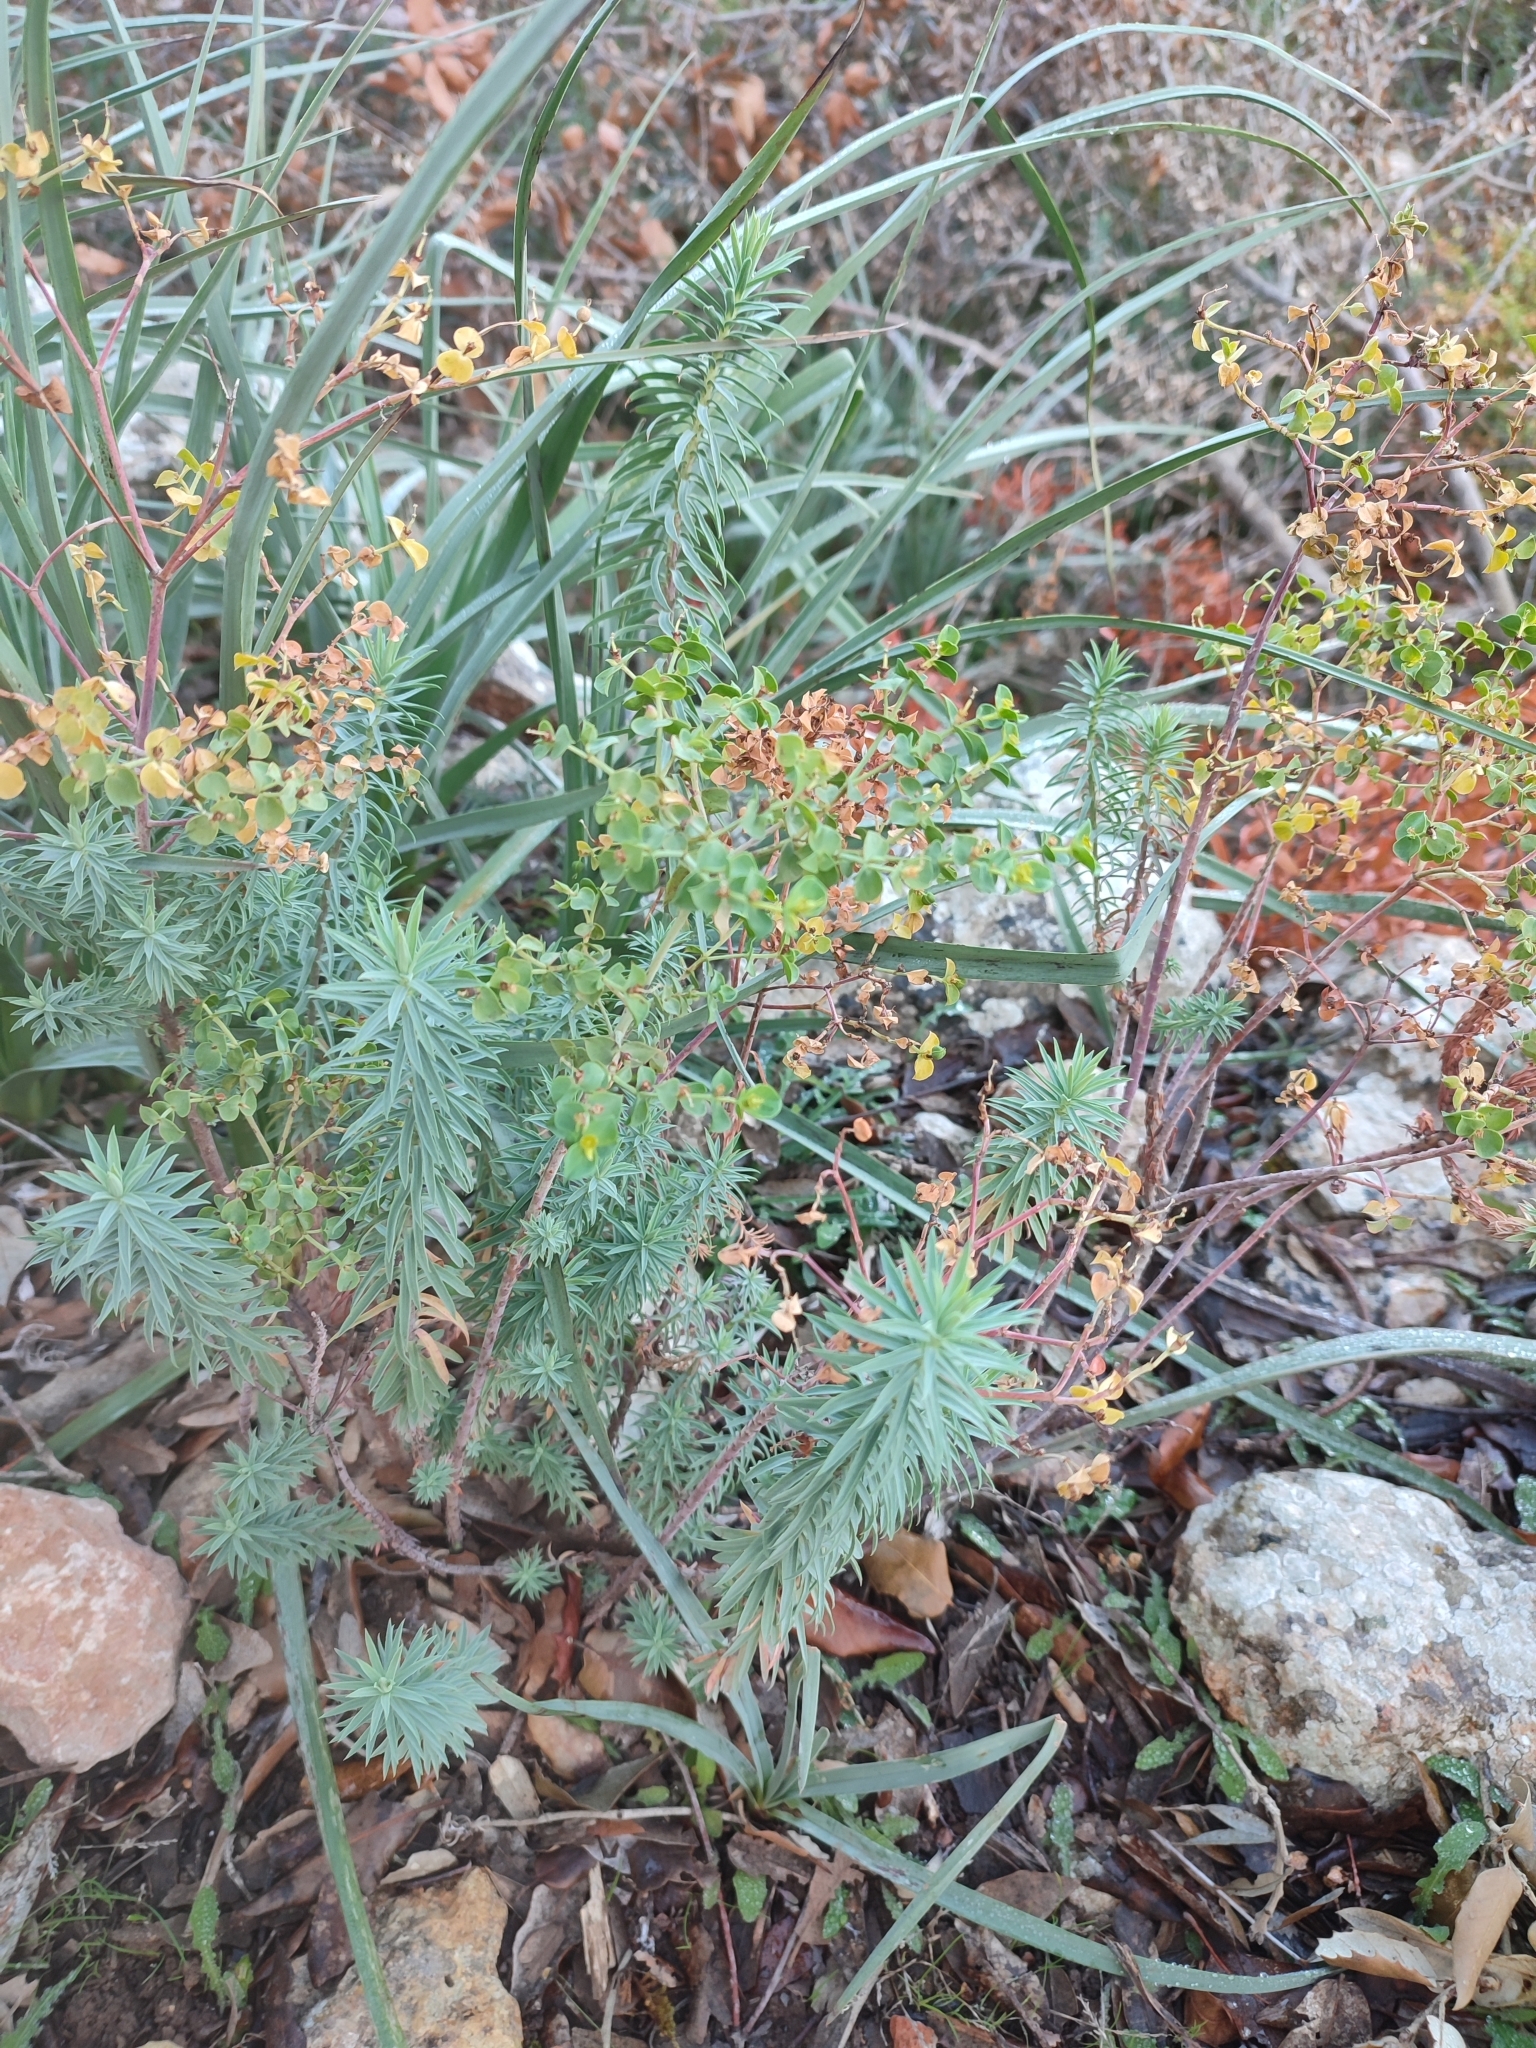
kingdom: Plantae
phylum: Tracheophyta
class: Magnoliopsida
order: Malpighiales
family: Euphorbiaceae
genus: Euphorbia
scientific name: Euphorbia pithyusa
